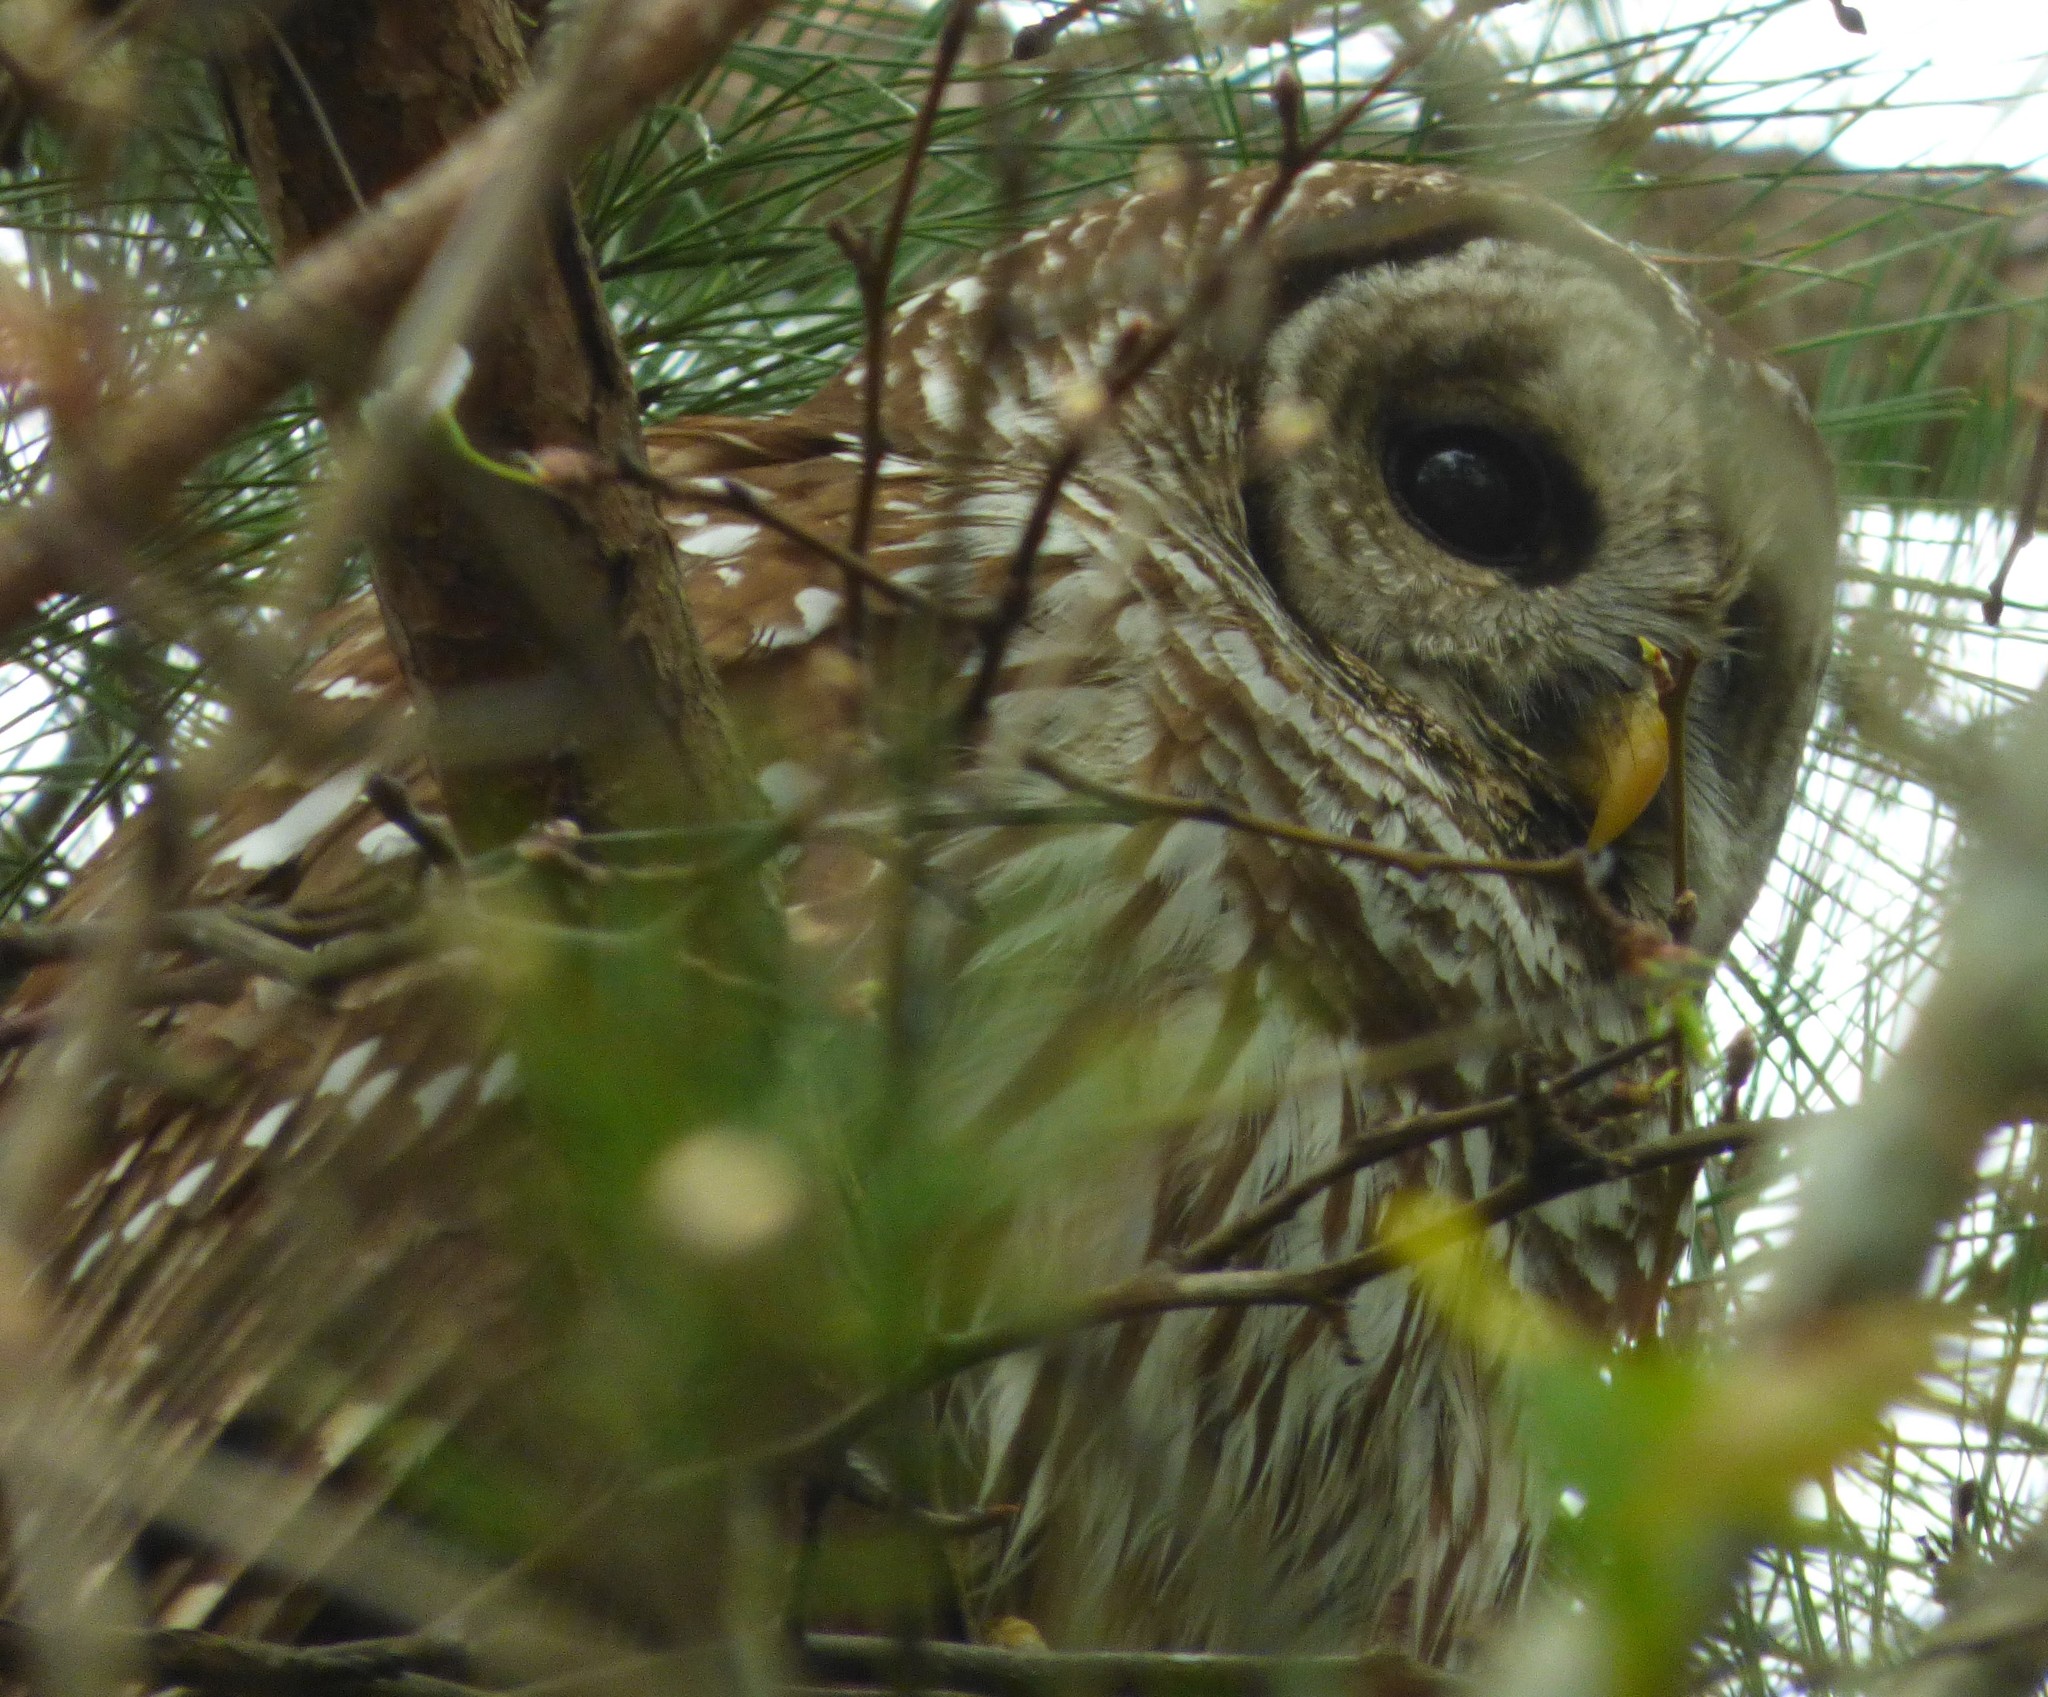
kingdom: Animalia
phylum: Chordata
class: Aves
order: Strigiformes
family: Strigidae
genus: Strix
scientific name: Strix varia
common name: Barred owl
